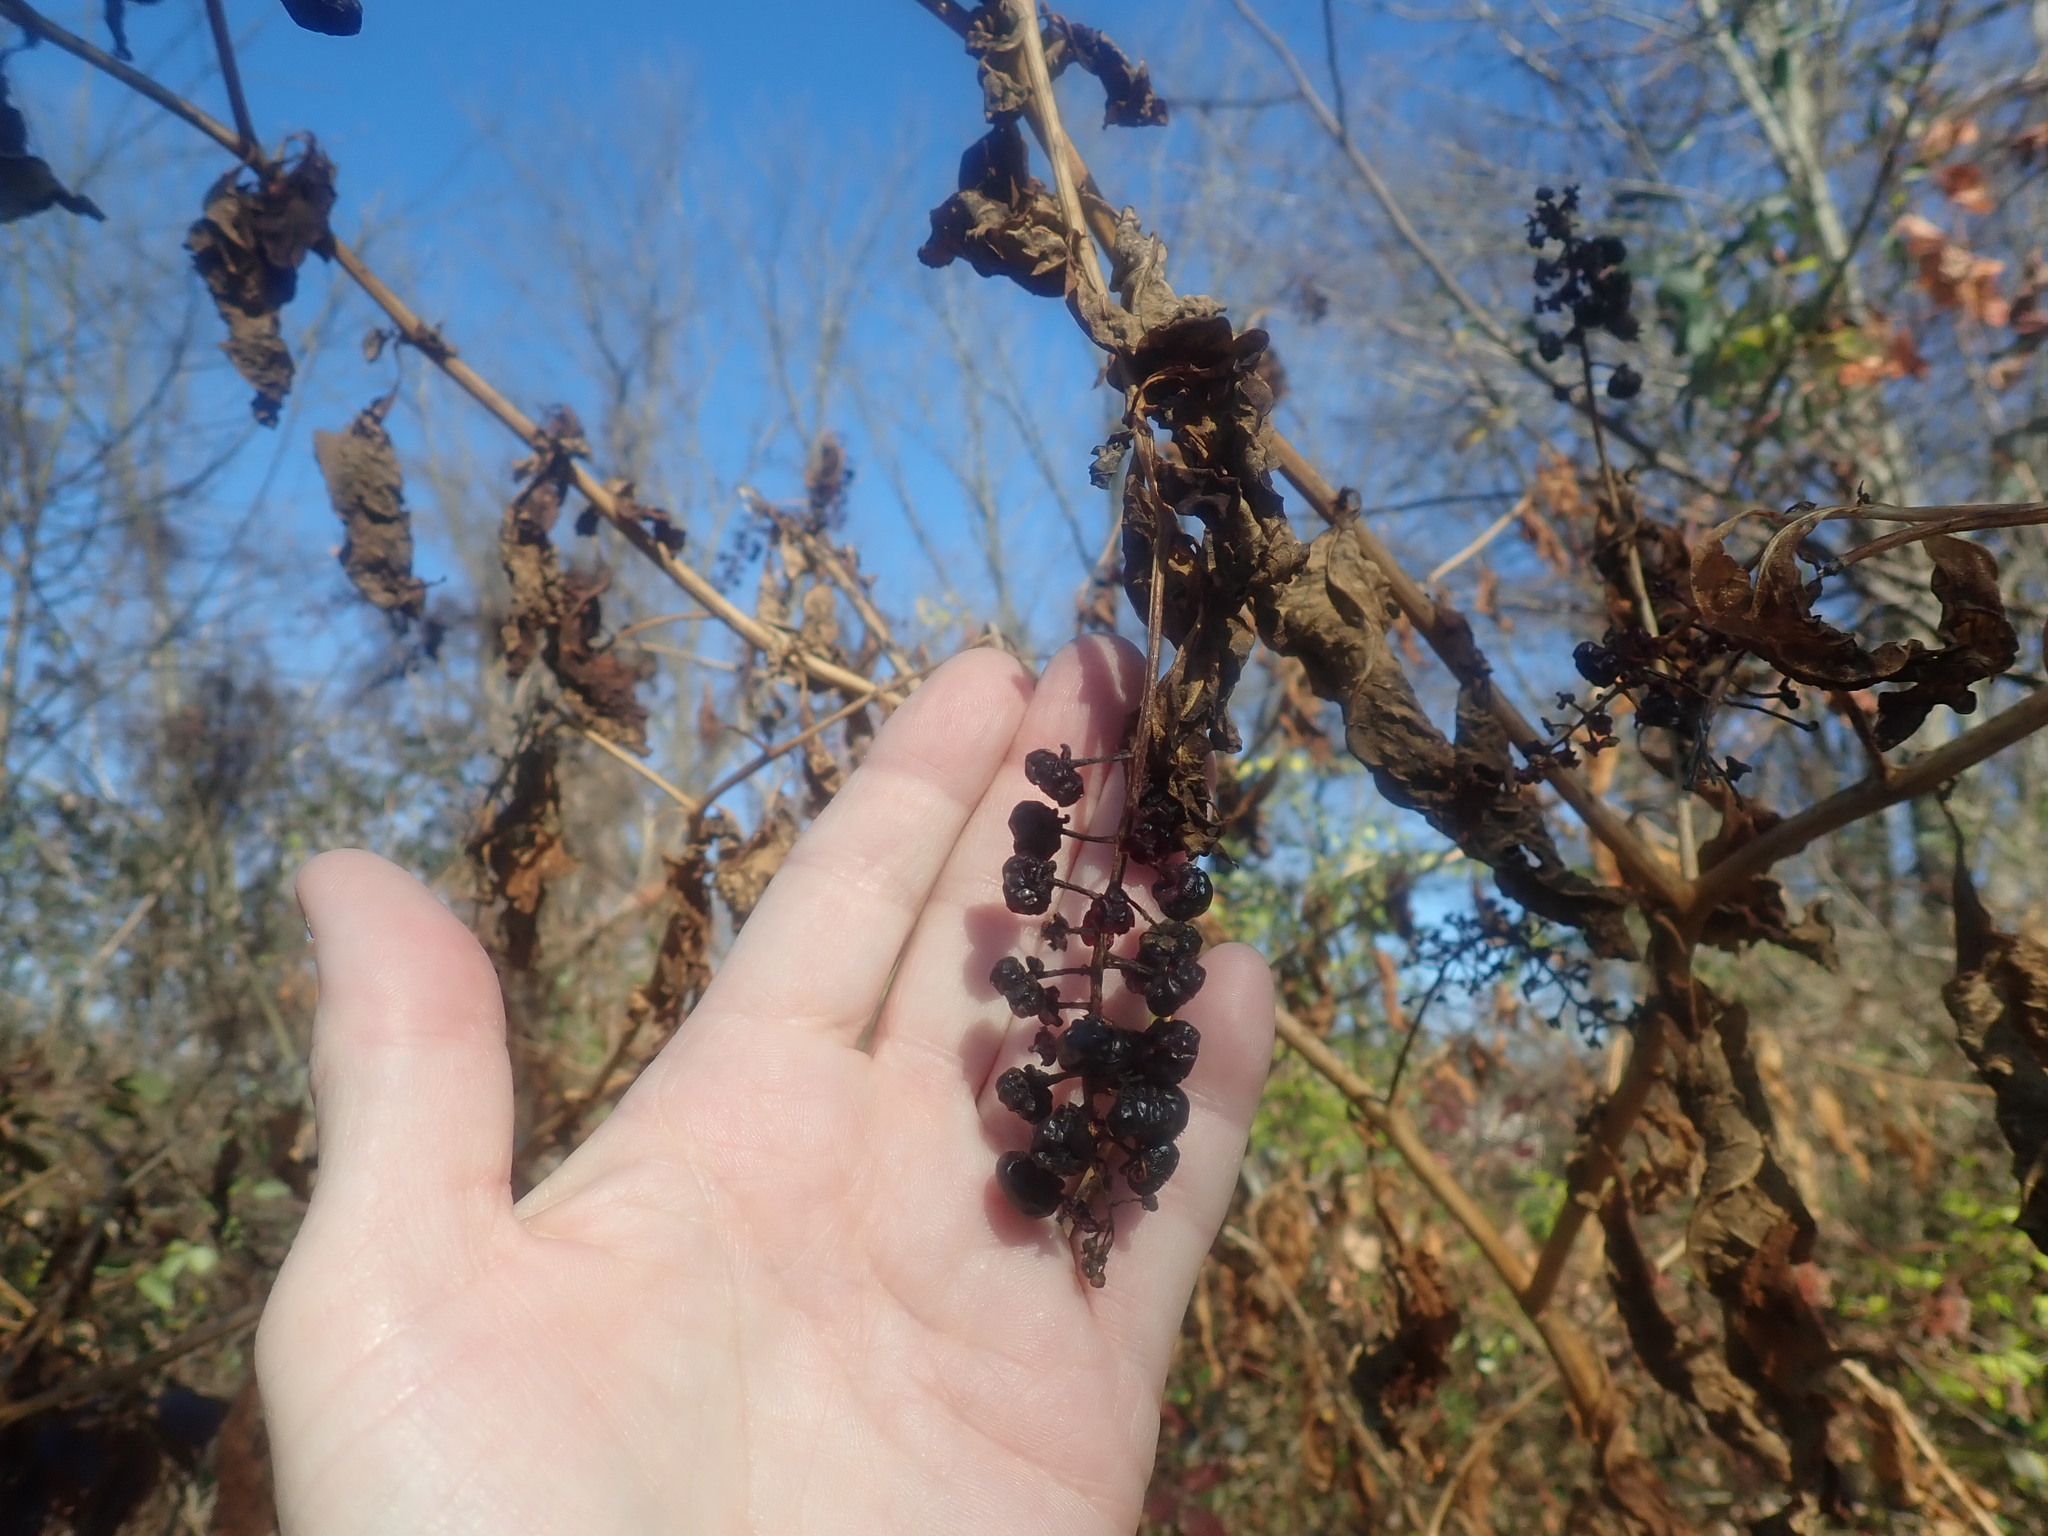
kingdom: Plantae
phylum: Tracheophyta
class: Magnoliopsida
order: Caryophyllales
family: Phytolaccaceae
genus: Phytolacca
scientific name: Phytolacca americana
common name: American pokeweed
